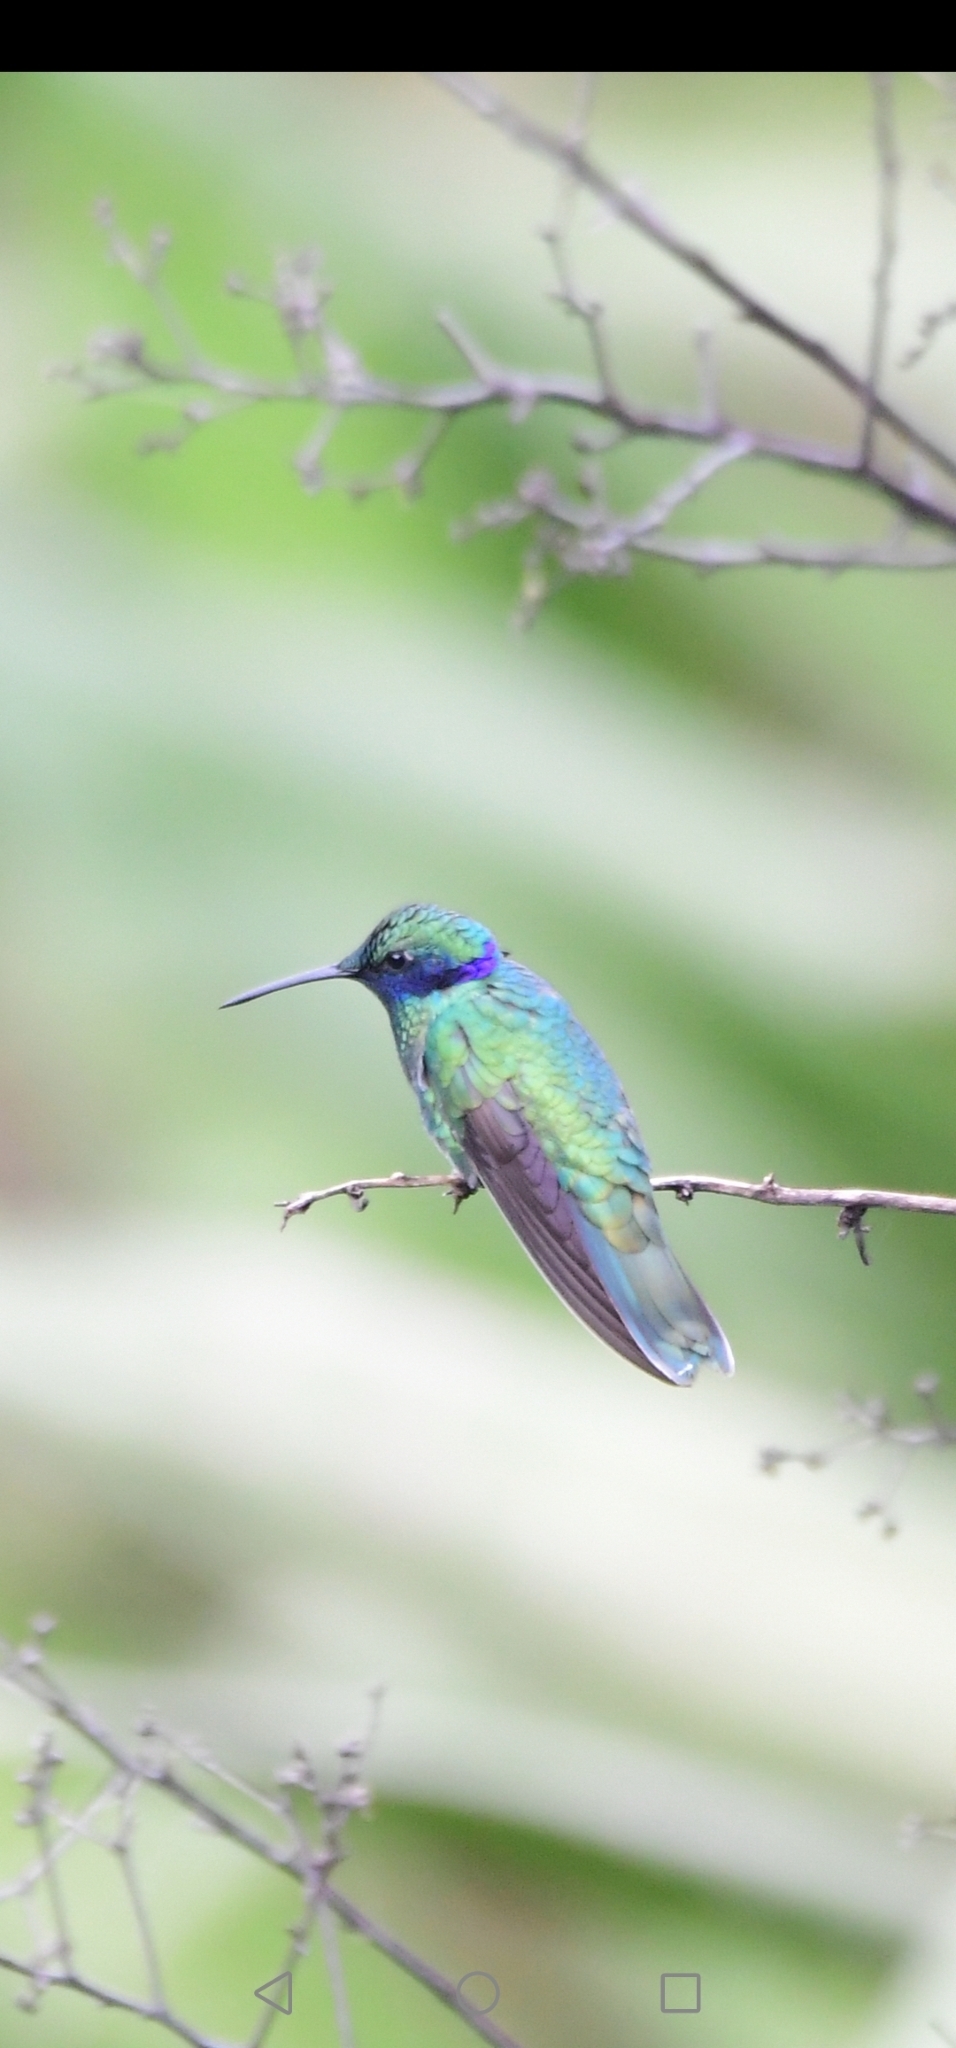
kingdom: Animalia
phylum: Chordata
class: Aves
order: Apodiformes
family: Trochilidae
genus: Colibri
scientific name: Colibri coruscans
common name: Sparkling violetear
